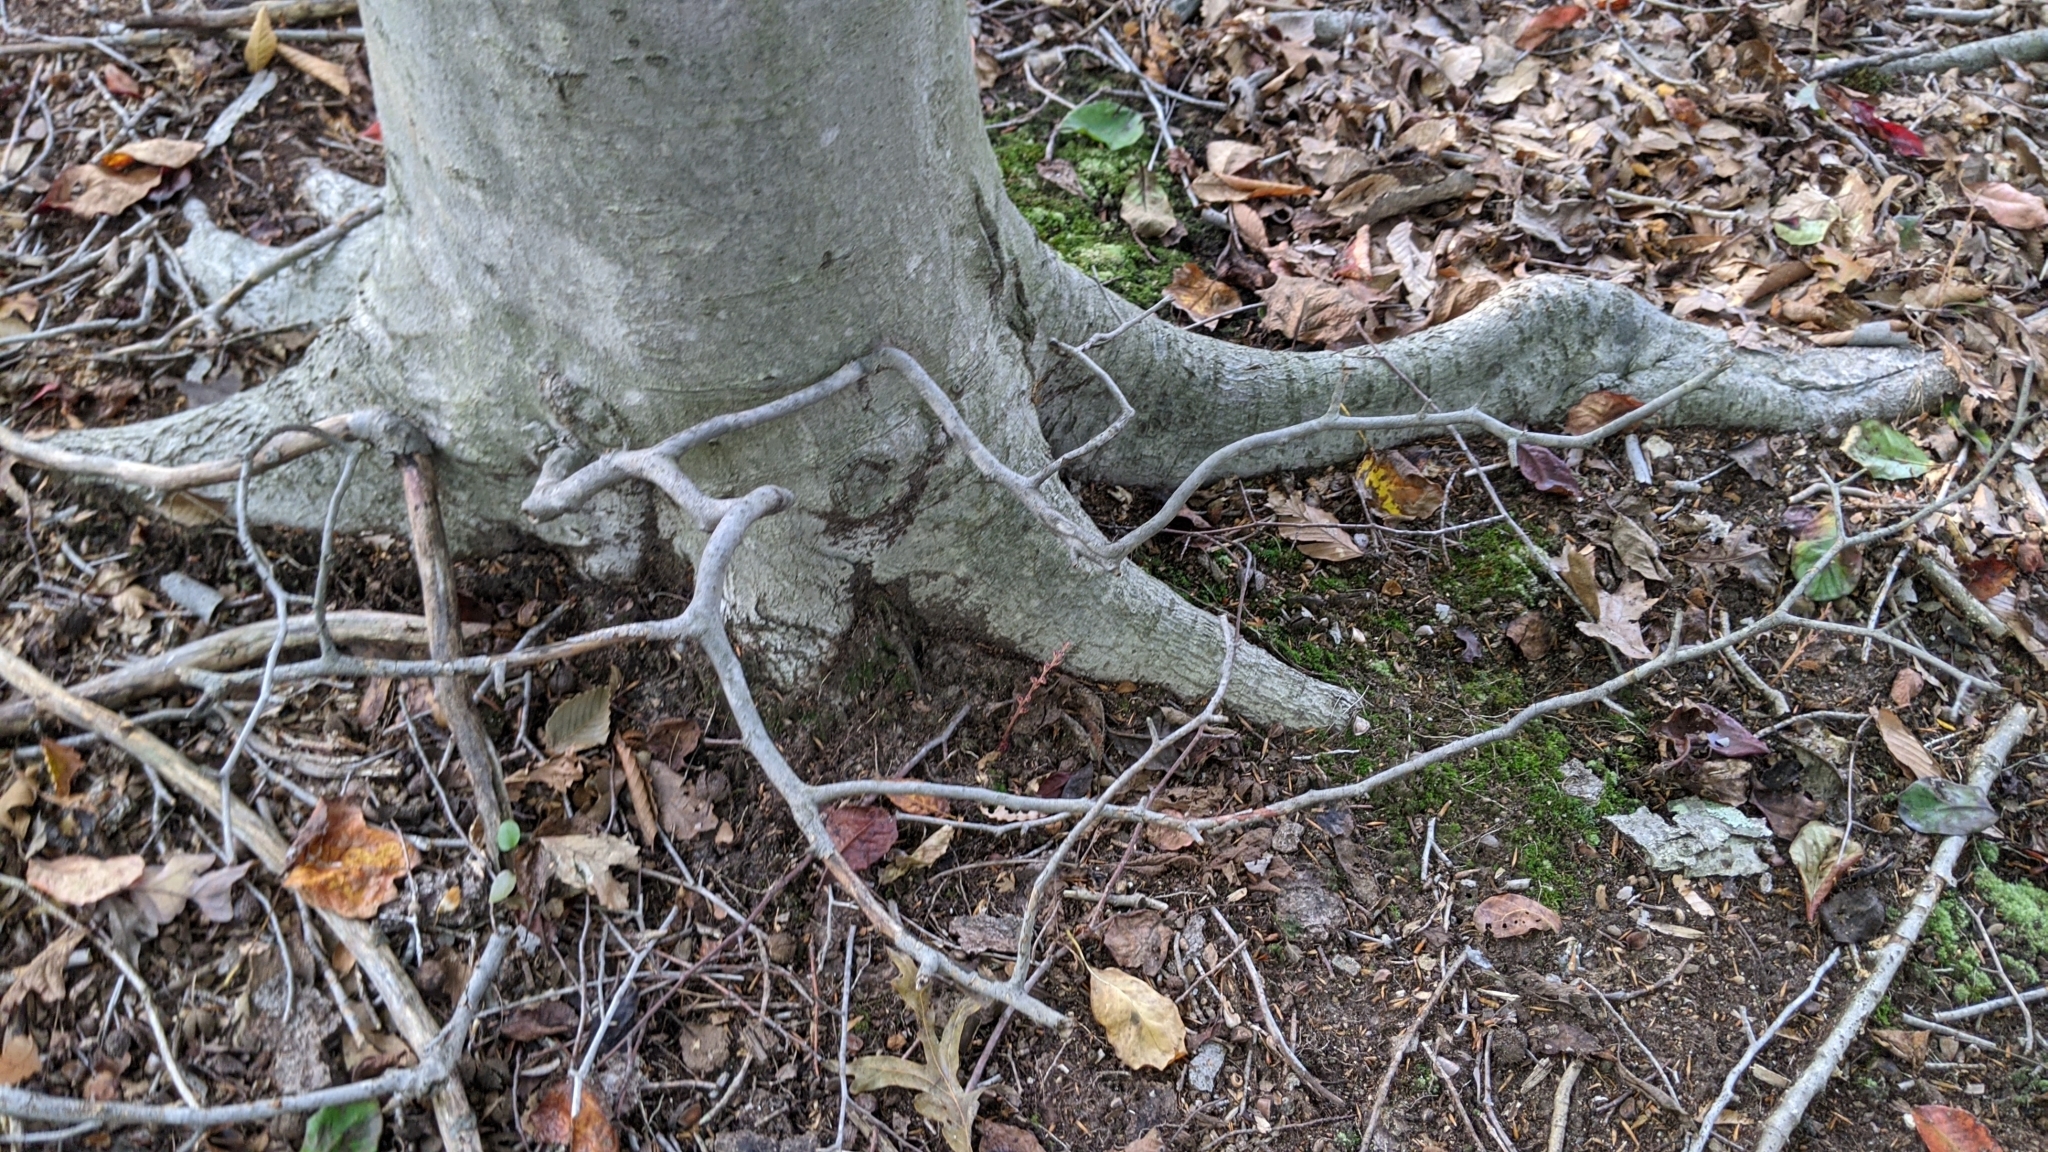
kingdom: Plantae
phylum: Tracheophyta
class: Magnoliopsida
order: Fagales
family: Fagaceae
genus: Fagus
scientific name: Fagus grandifolia
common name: American beech
